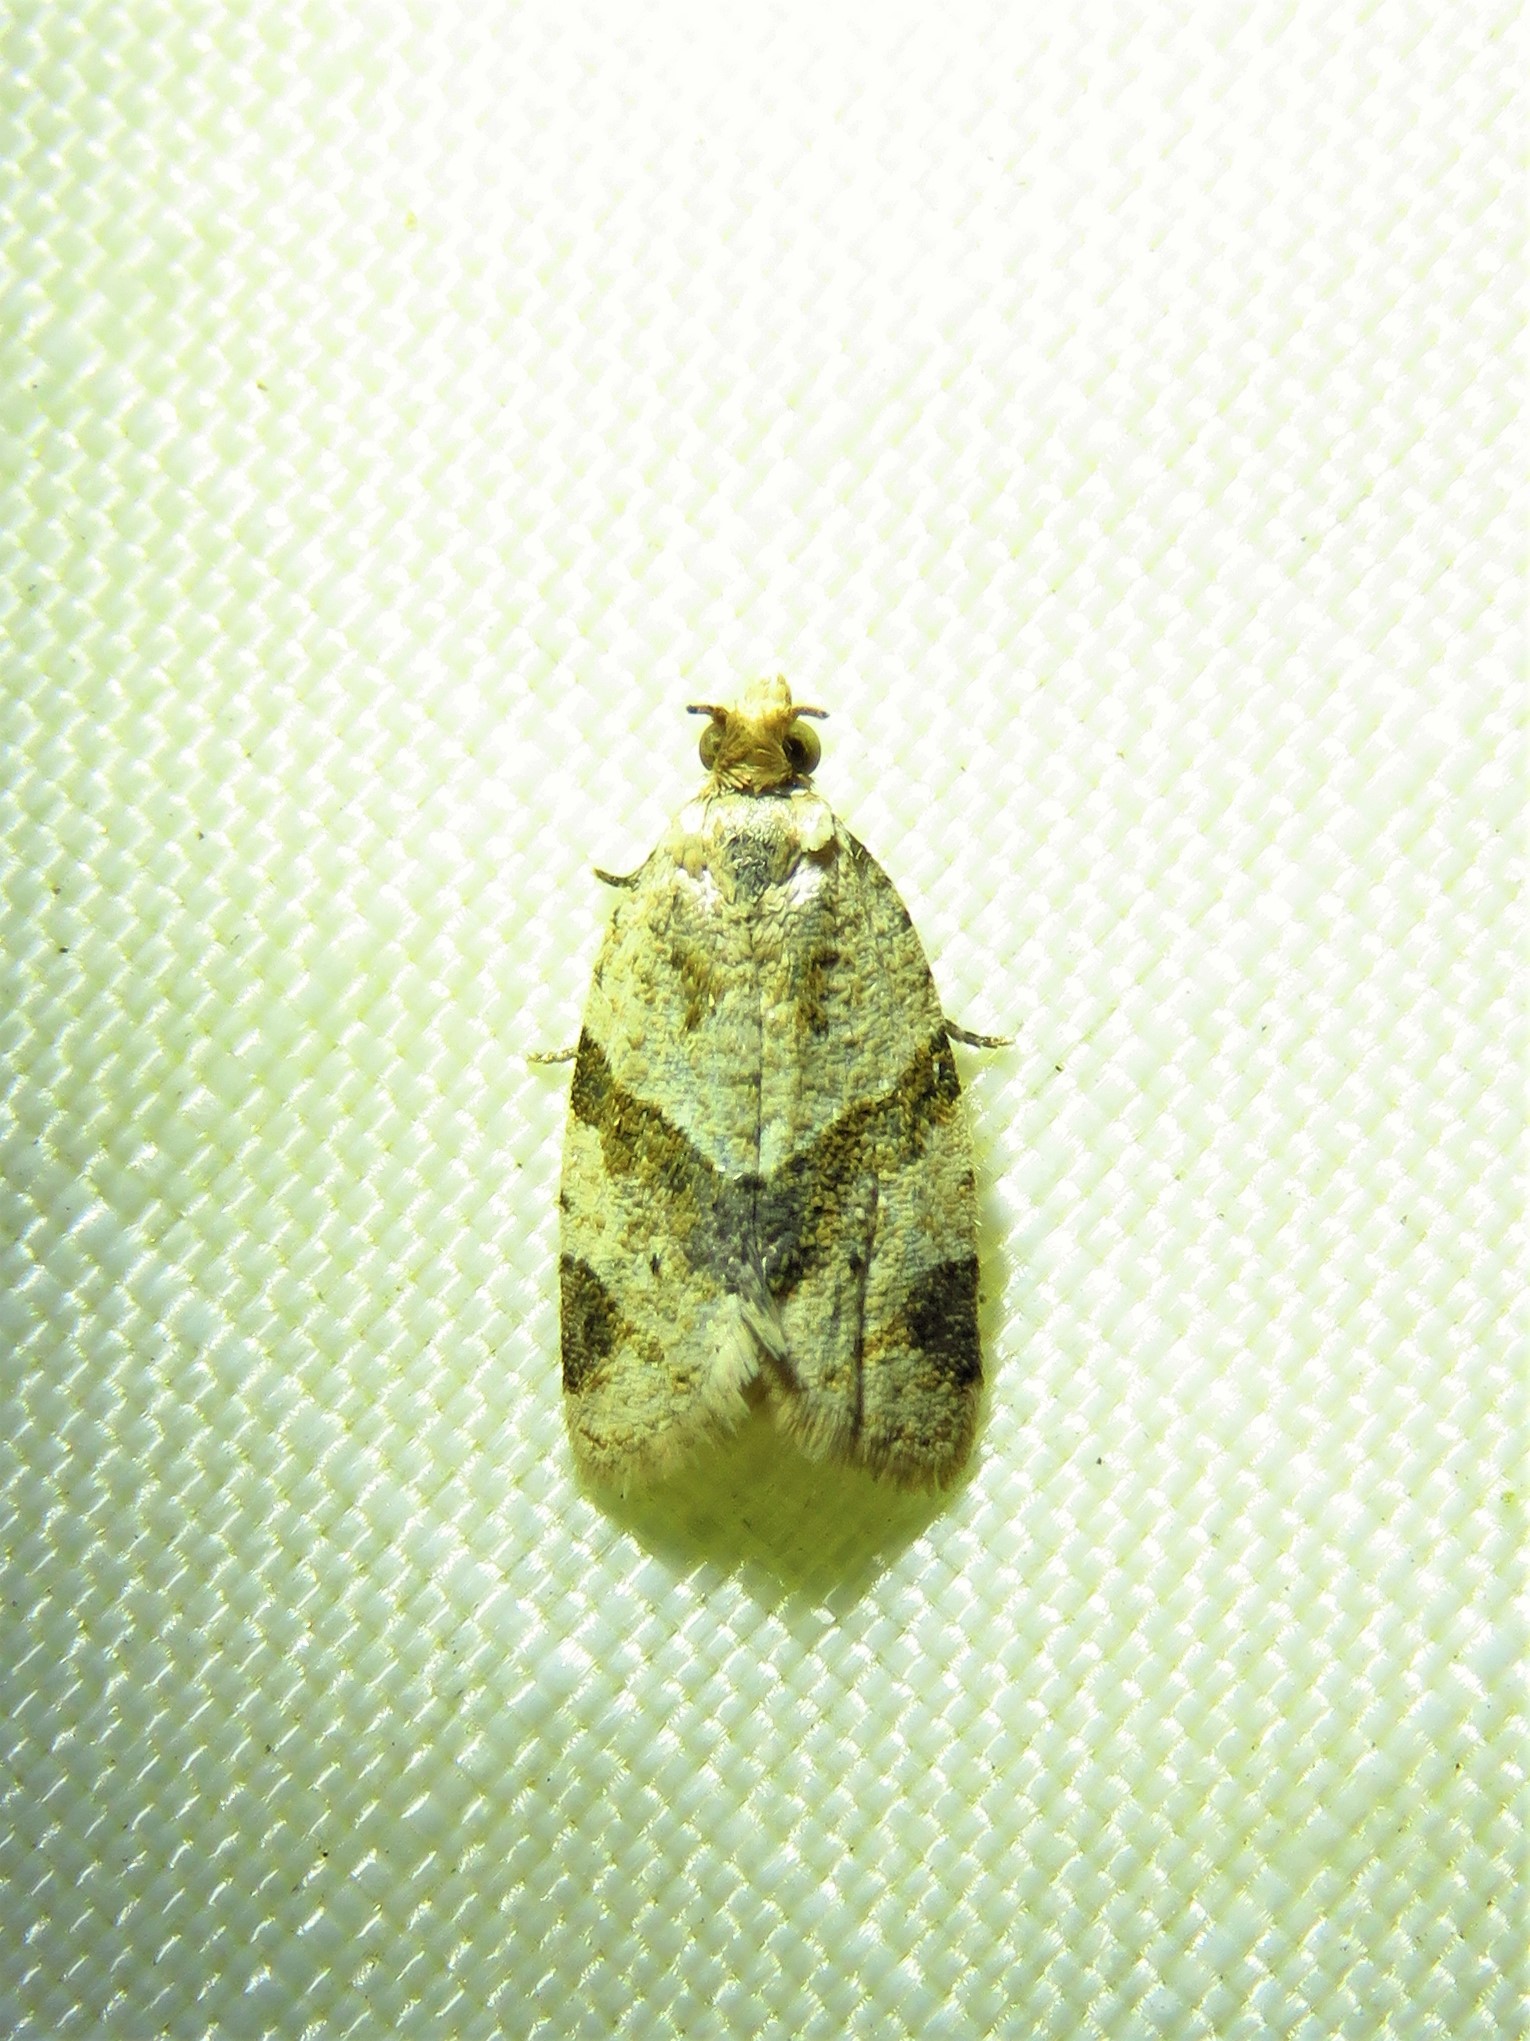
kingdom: Animalia
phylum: Arthropoda
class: Insecta
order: Lepidoptera
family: Tortricidae
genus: Clepsis
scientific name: Clepsis peritana
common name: Garden tortrix
